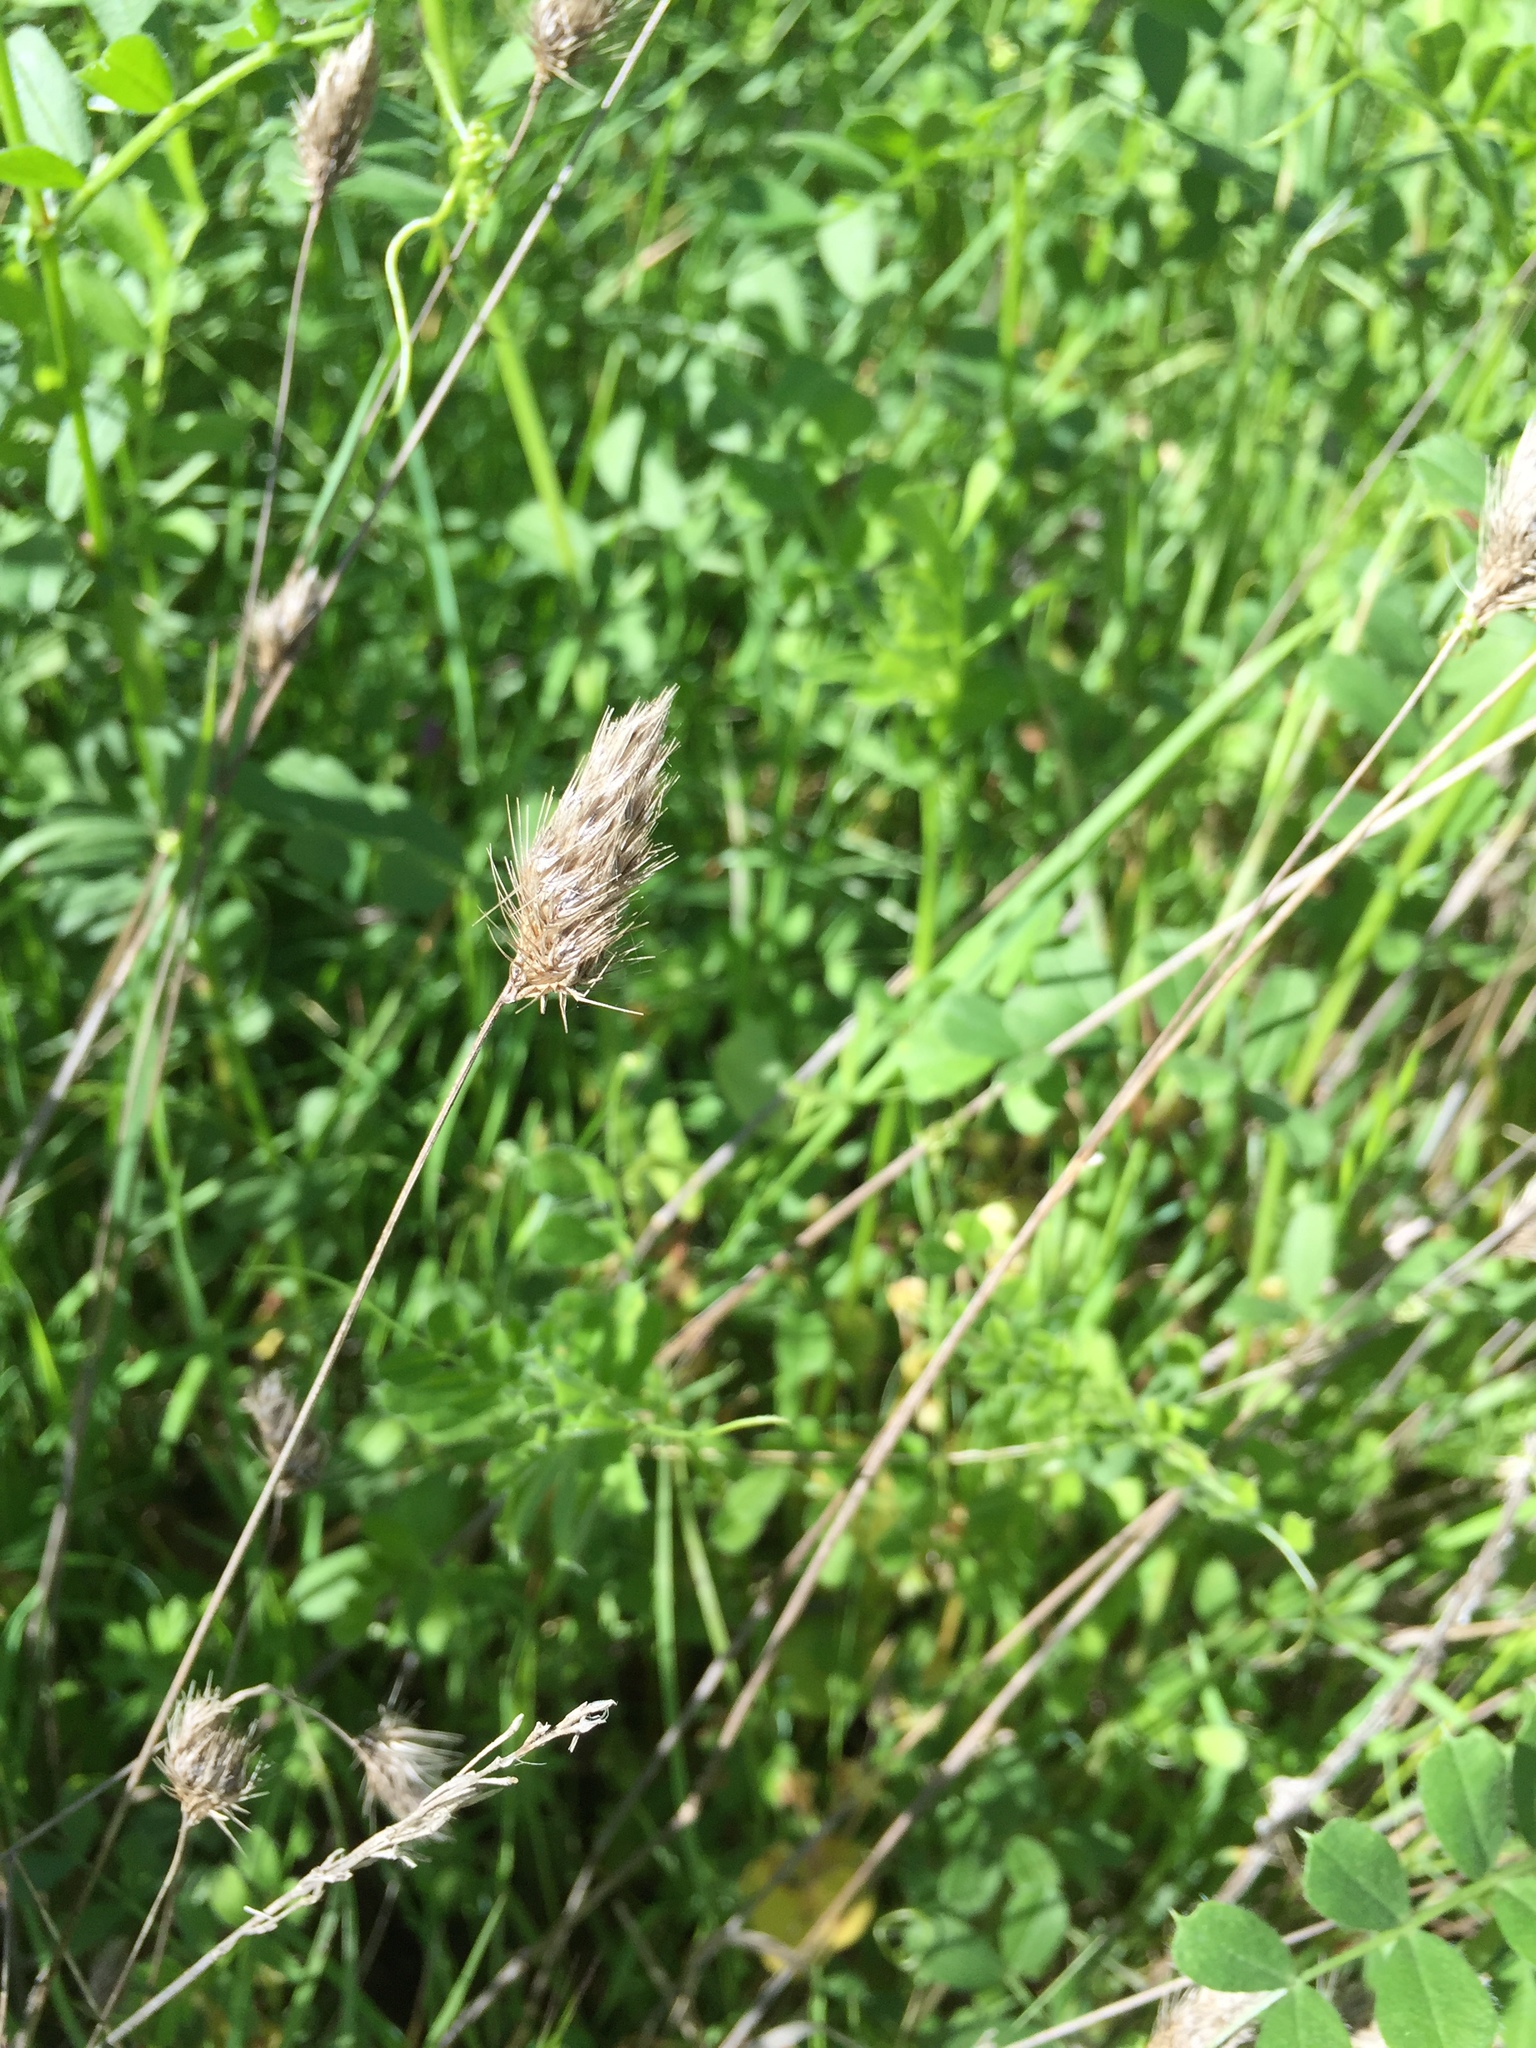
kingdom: Plantae
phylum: Tracheophyta
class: Liliopsida
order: Poales
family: Poaceae
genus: Cynosurus
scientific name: Cynosurus echinatus
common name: Rough dog's-tail
